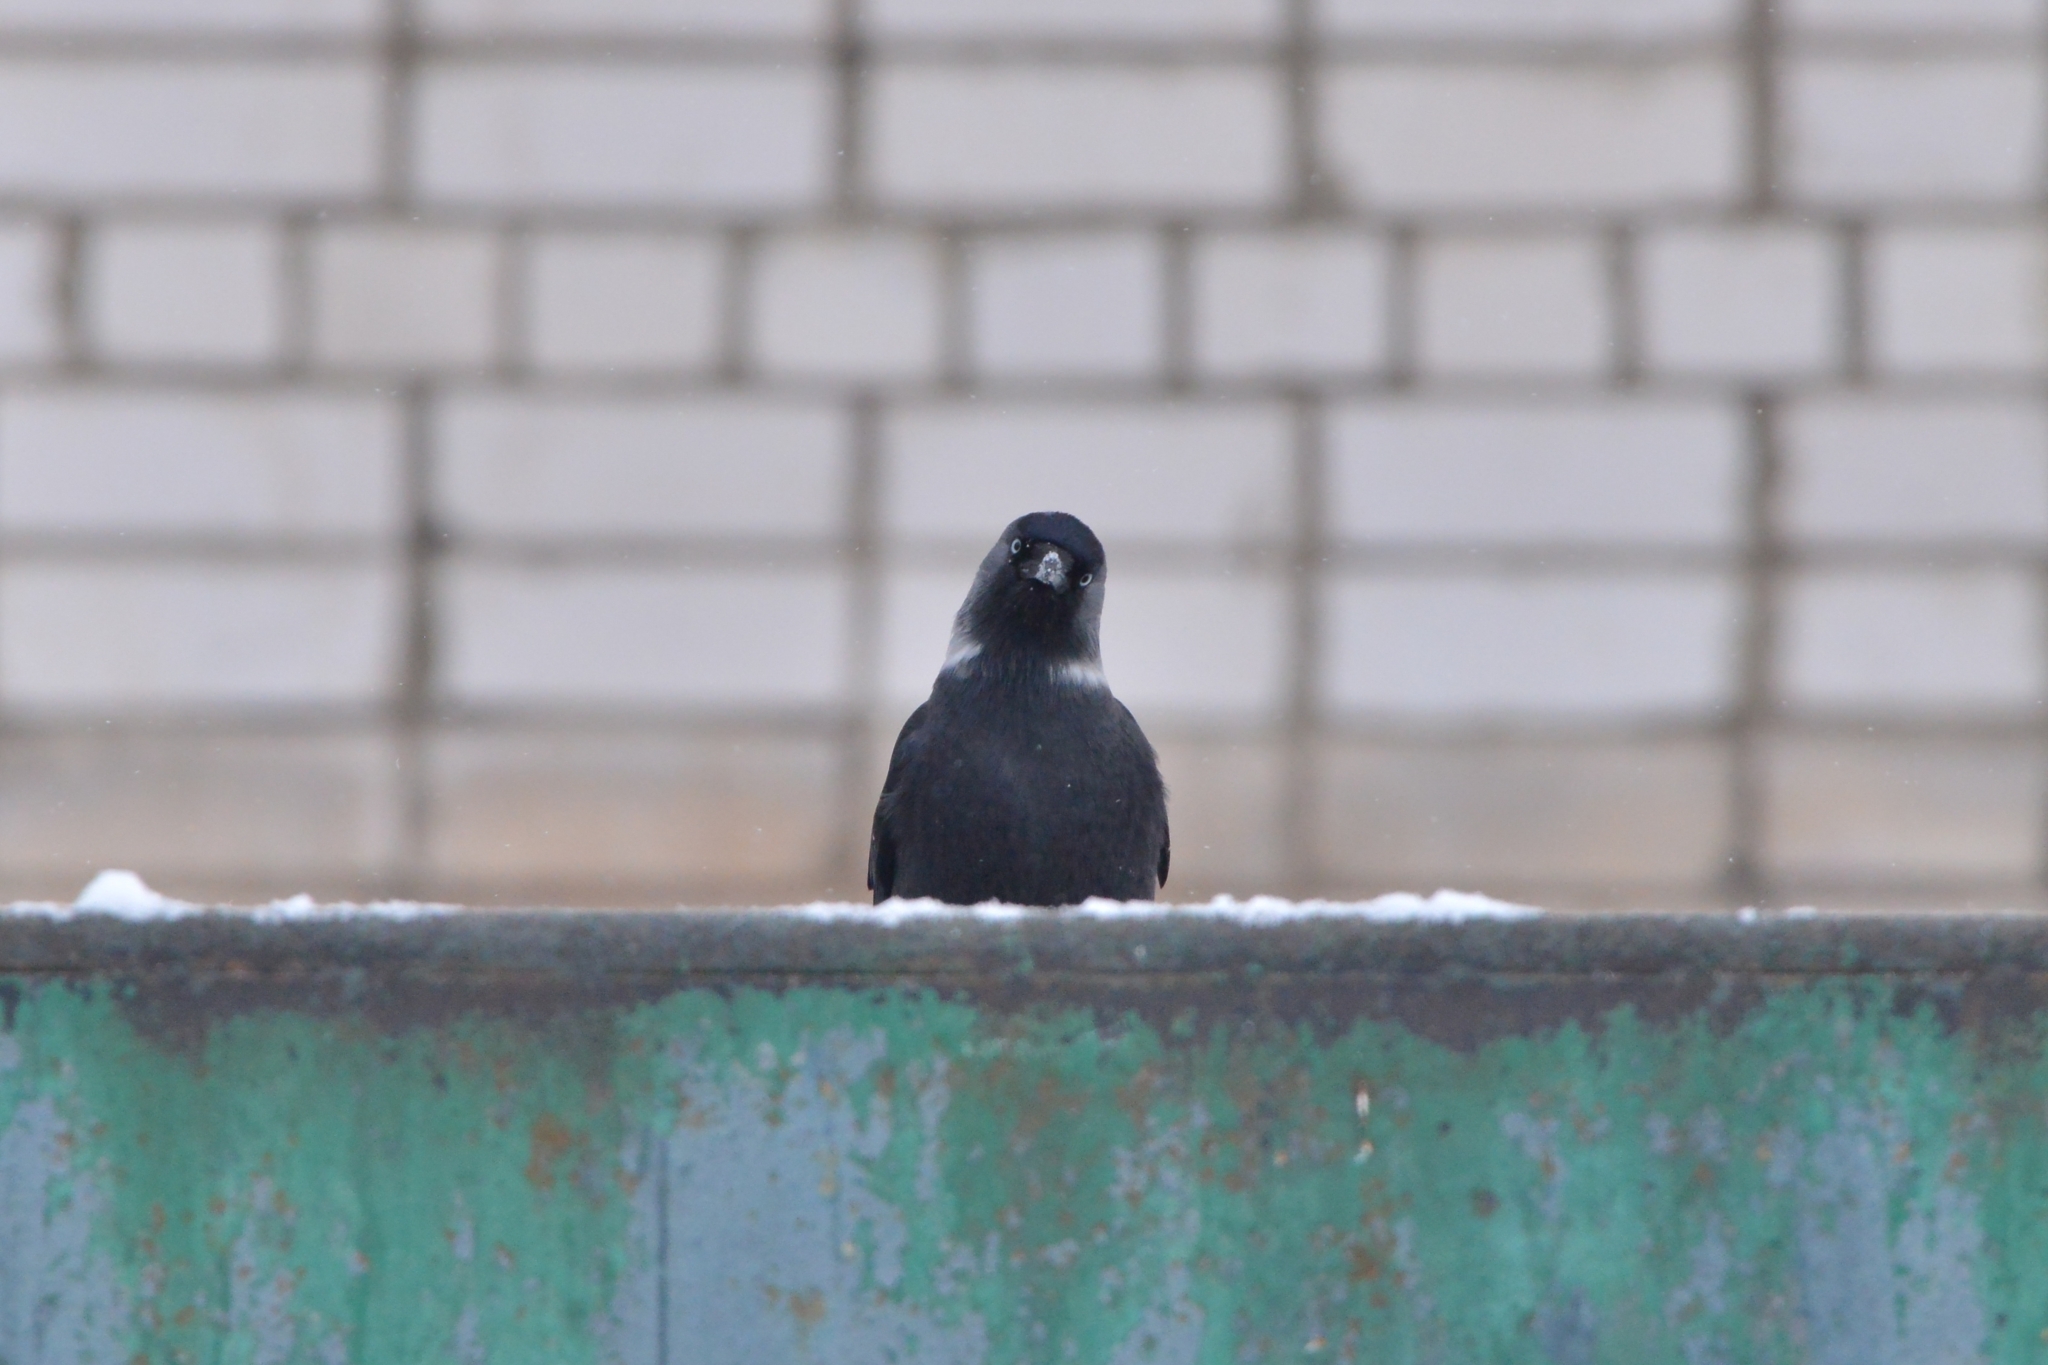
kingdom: Animalia
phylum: Chordata
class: Aves
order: Passeriformes
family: Corvidae
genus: Coloeus
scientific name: Coloeus monedula
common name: Western jackdaw
